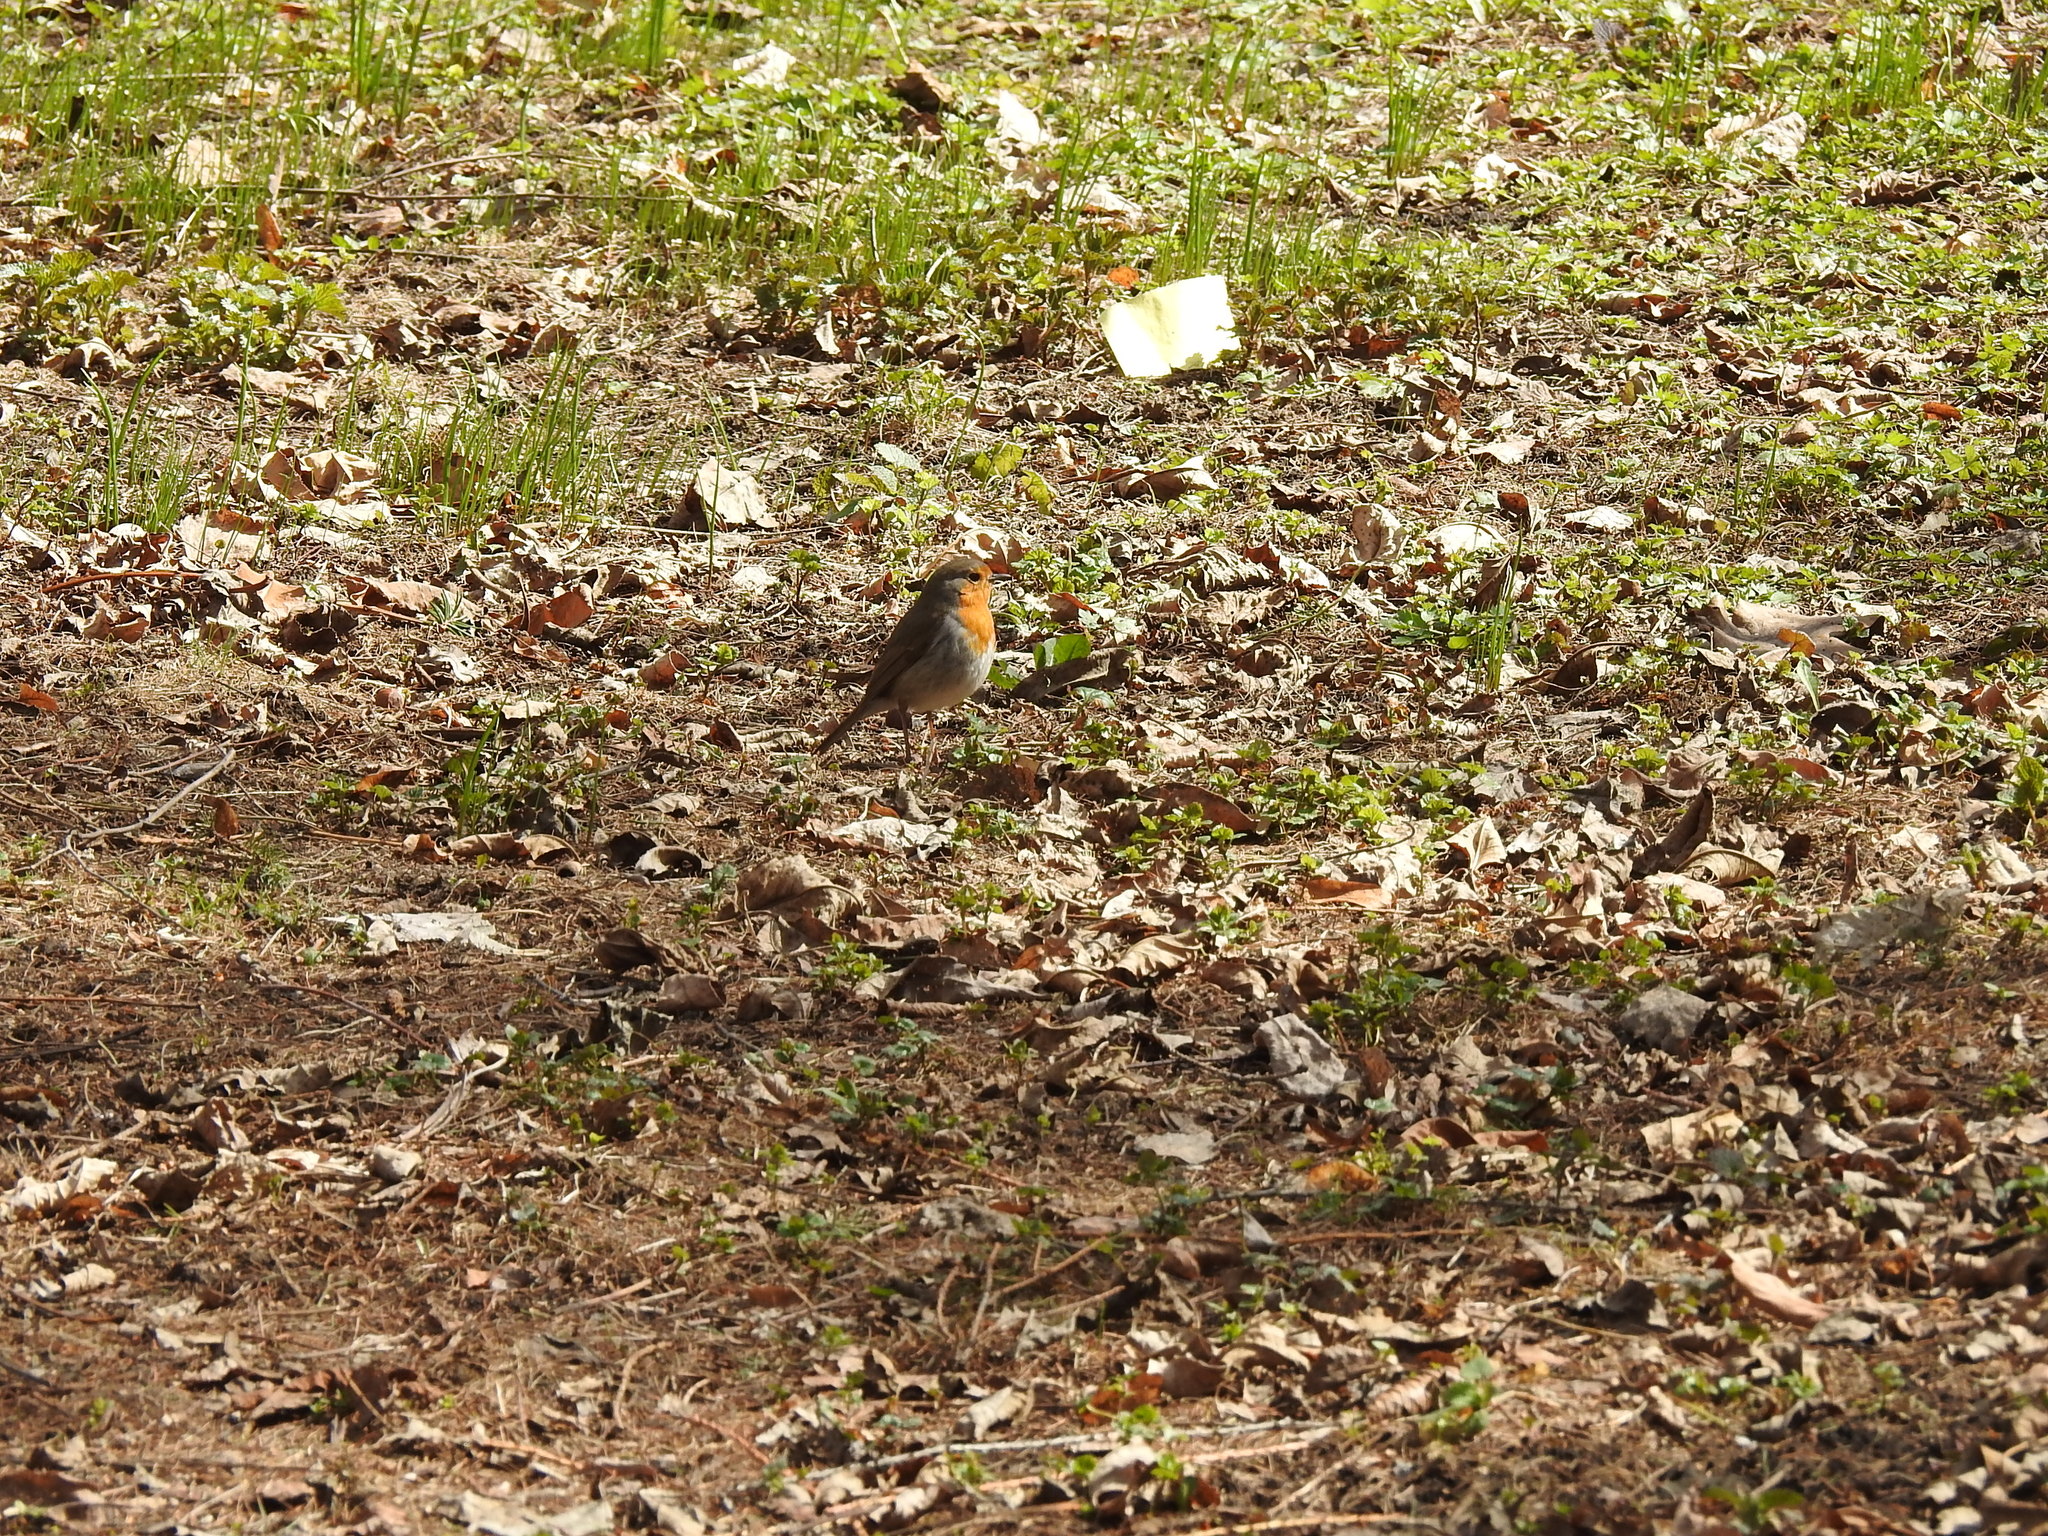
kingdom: Animalia
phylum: Chordata
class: Aves
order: Passeriformes
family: Muscicapidae
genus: Erithacus
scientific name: Erithacus rubecula
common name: European robin
